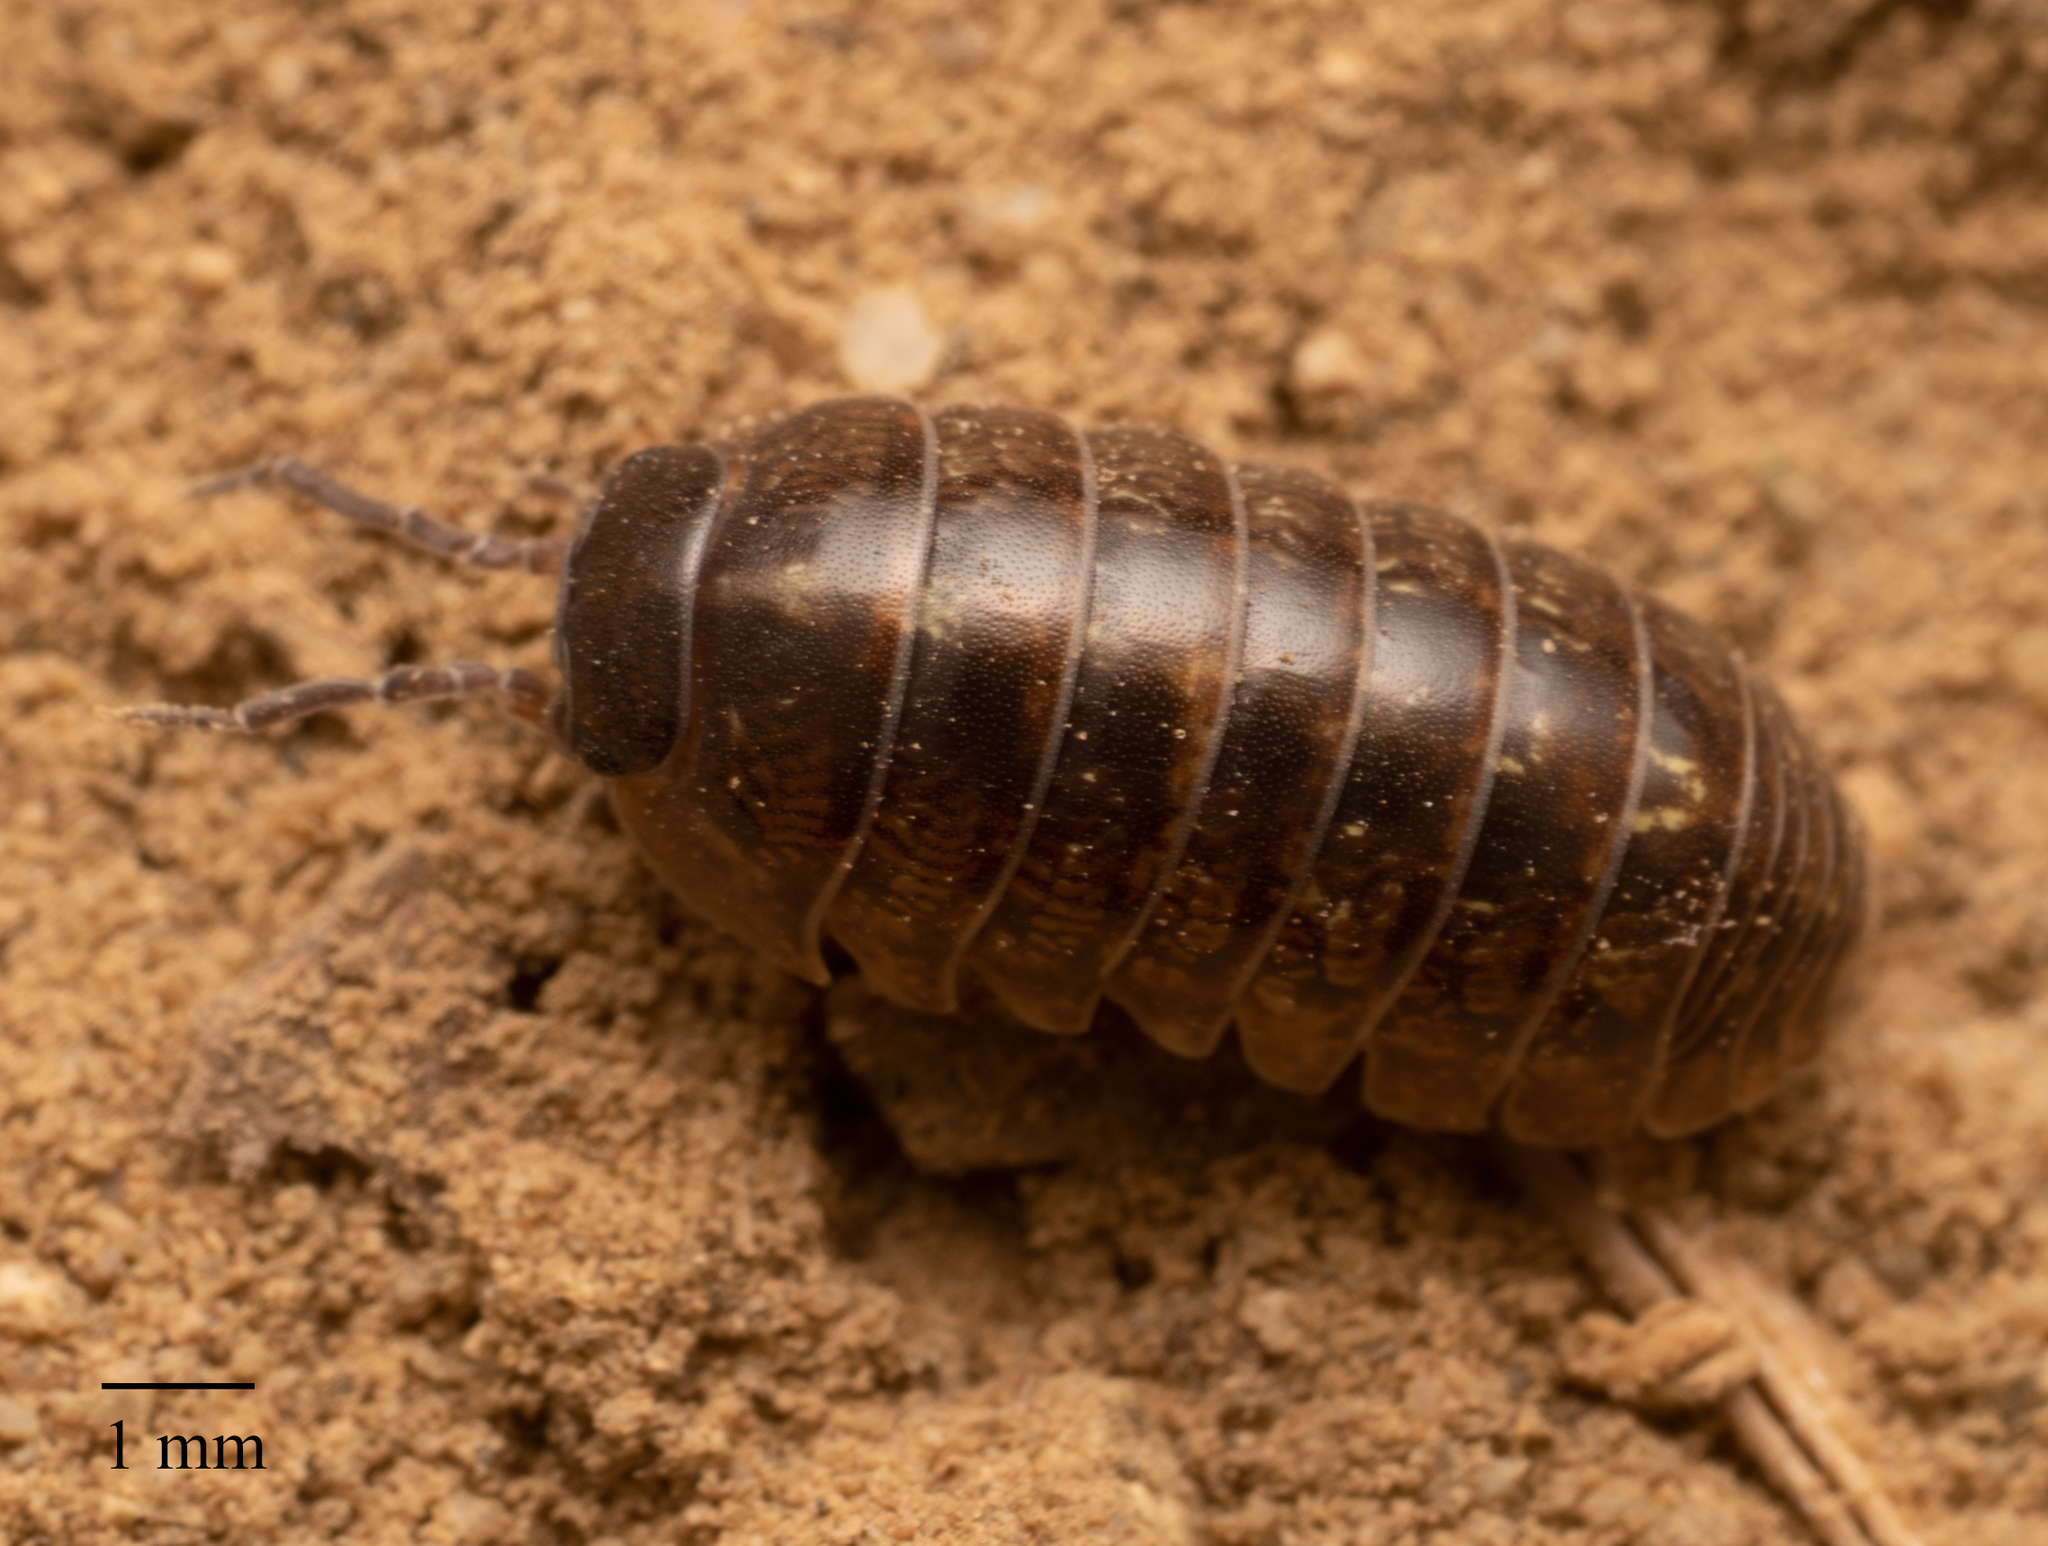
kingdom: Animalia
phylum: Arthropoda
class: Malacostraca
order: Isopoda
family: Armadillidiidae
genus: Armadillidium
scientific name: Armadillidium vulgare
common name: Common pill woodlouse
